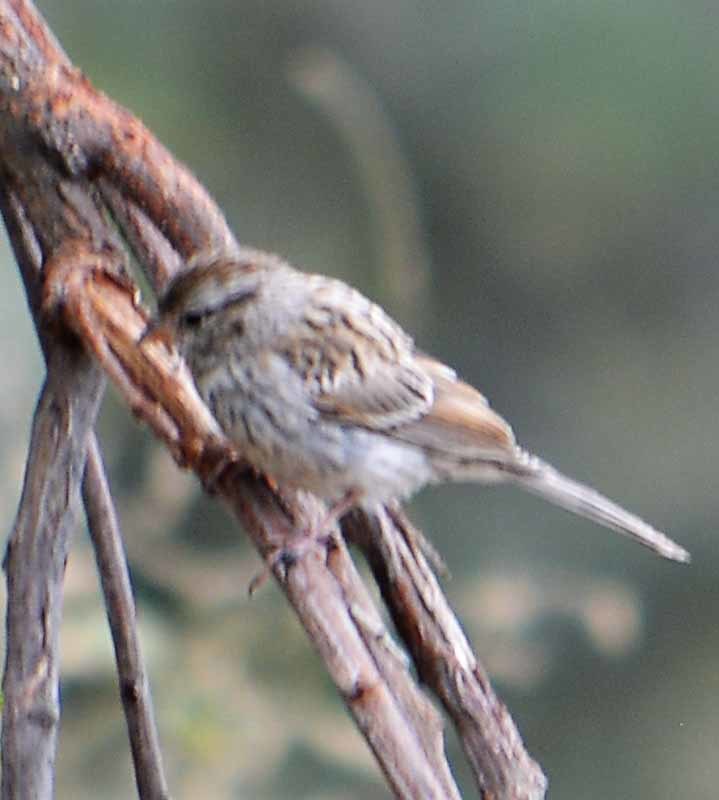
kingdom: Animalia
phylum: Chordata
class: Aves
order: Passeriformes
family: Passerellidae
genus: Spizella
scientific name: Spizella passerina
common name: Chipping sparrow
